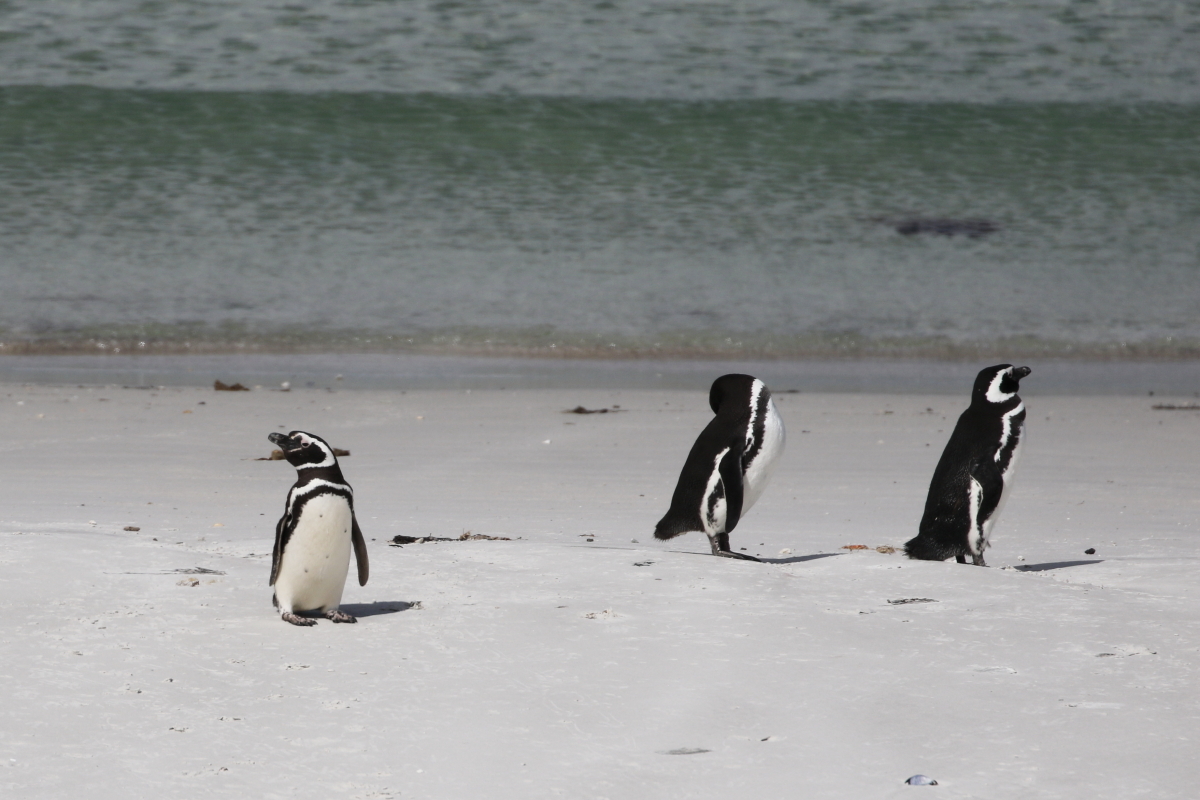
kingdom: Animalia
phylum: Chordata
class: Aves
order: Sphenisciformes
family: Spheniscidae
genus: Spheniscus
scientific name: Spheniscus magellanicus
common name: Magellanic penguin
